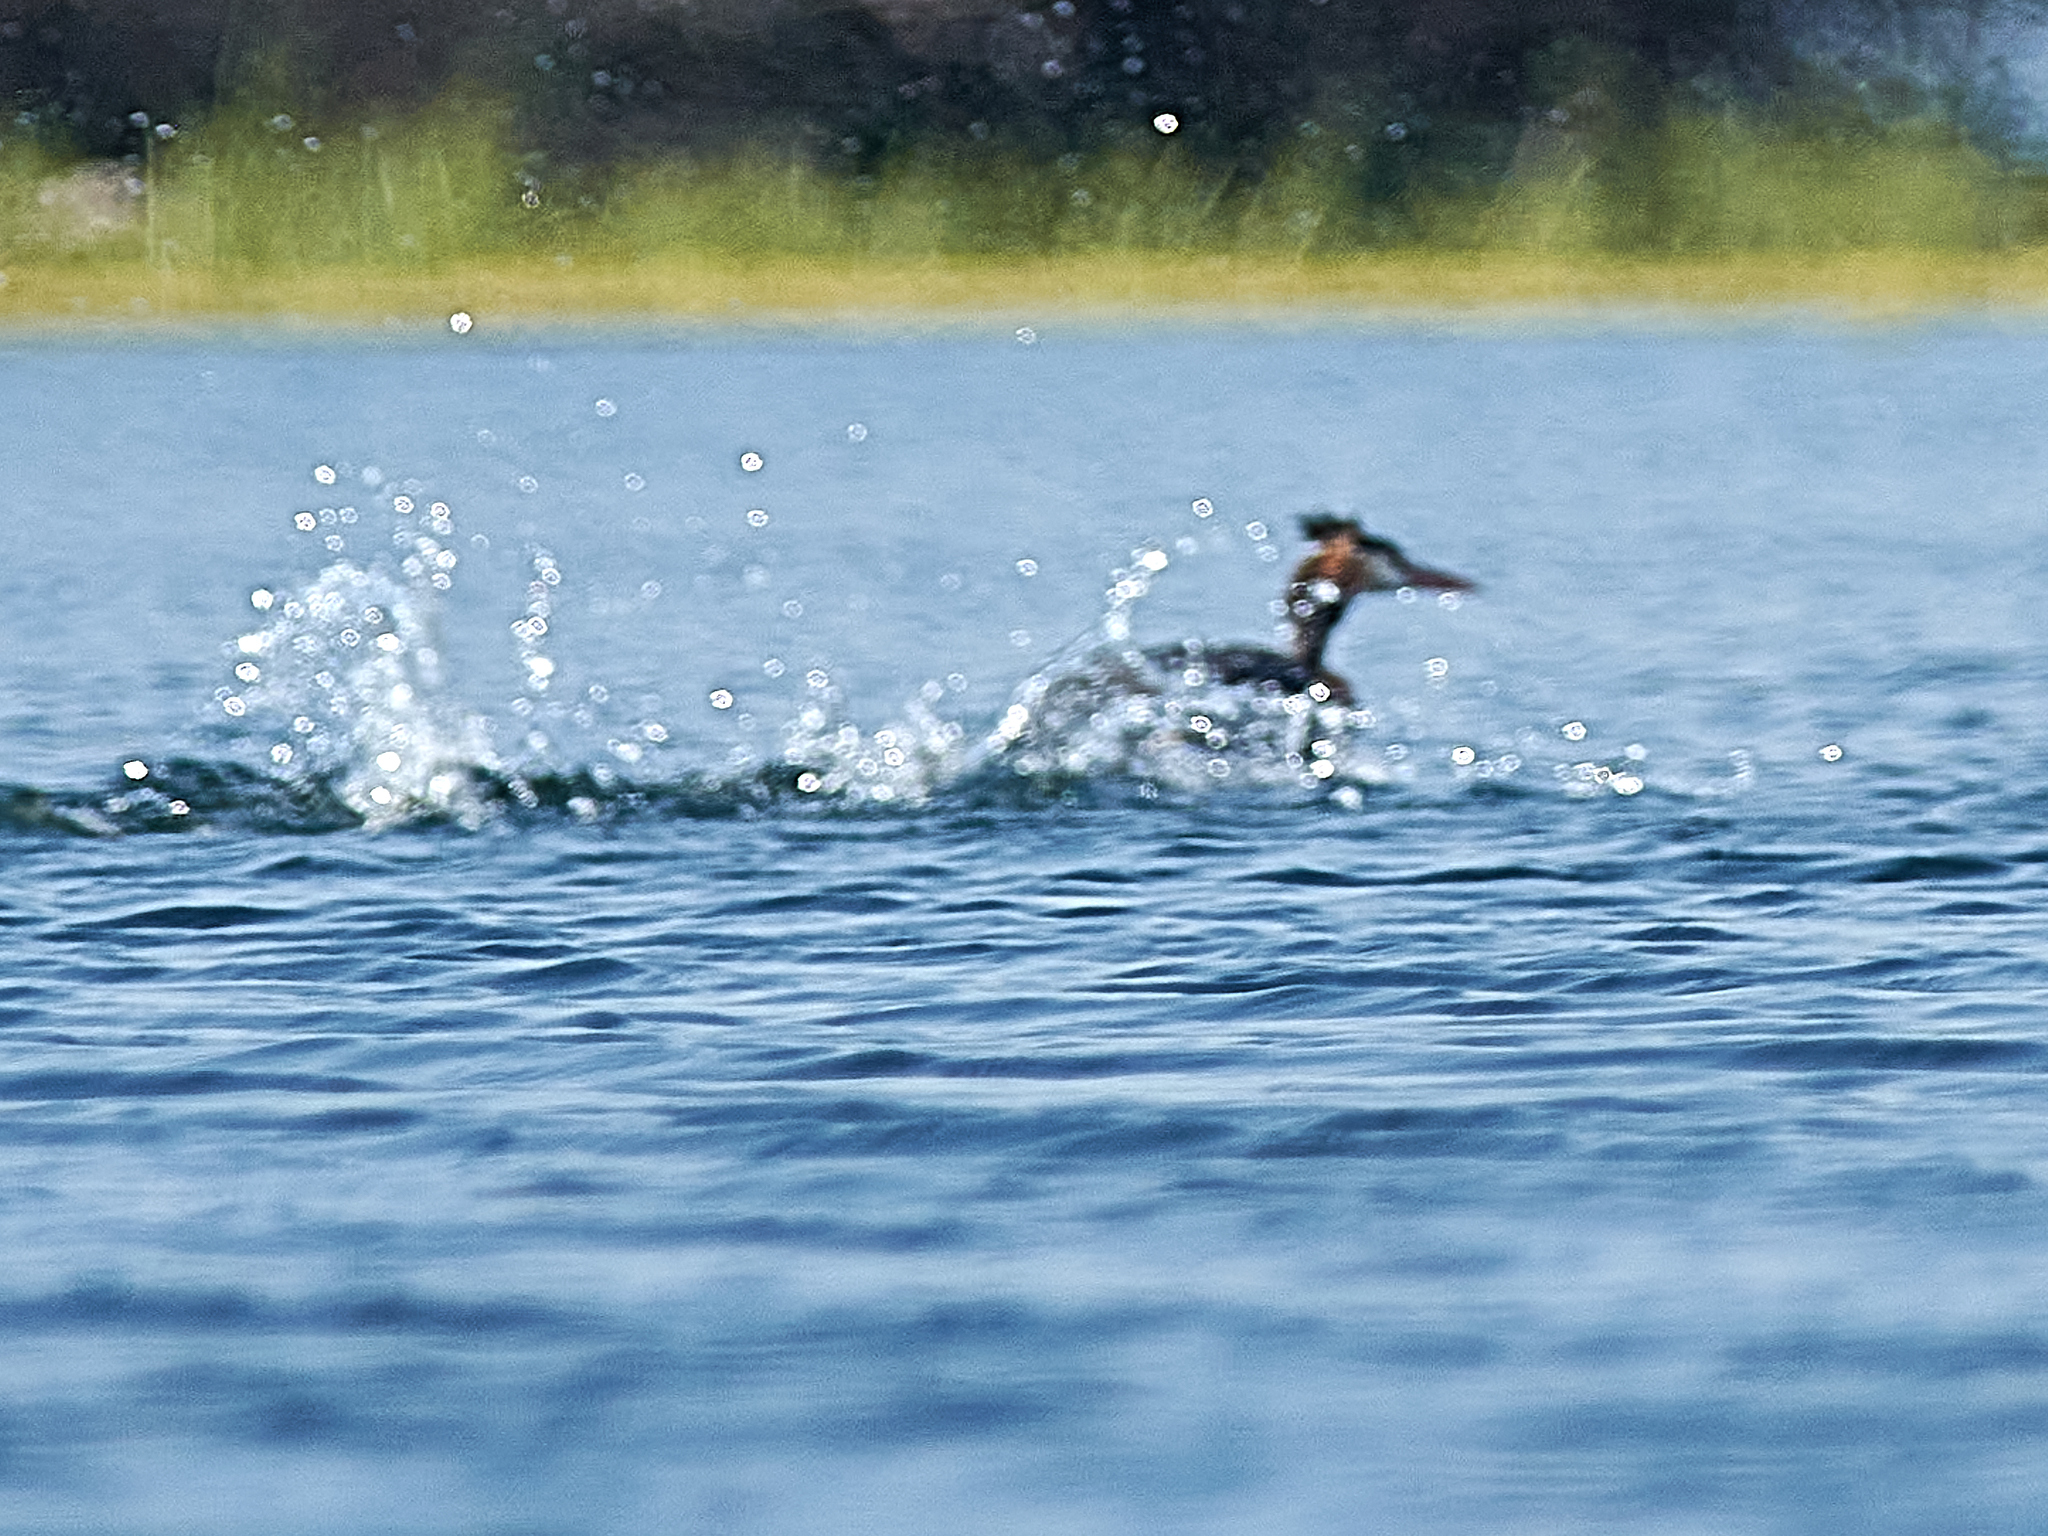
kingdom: Animalia
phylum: Chordata
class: Aves
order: Podicipediformes
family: Podicipedidae
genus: Podiceps
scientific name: Podiceps cristatus
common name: Great crested grebe
